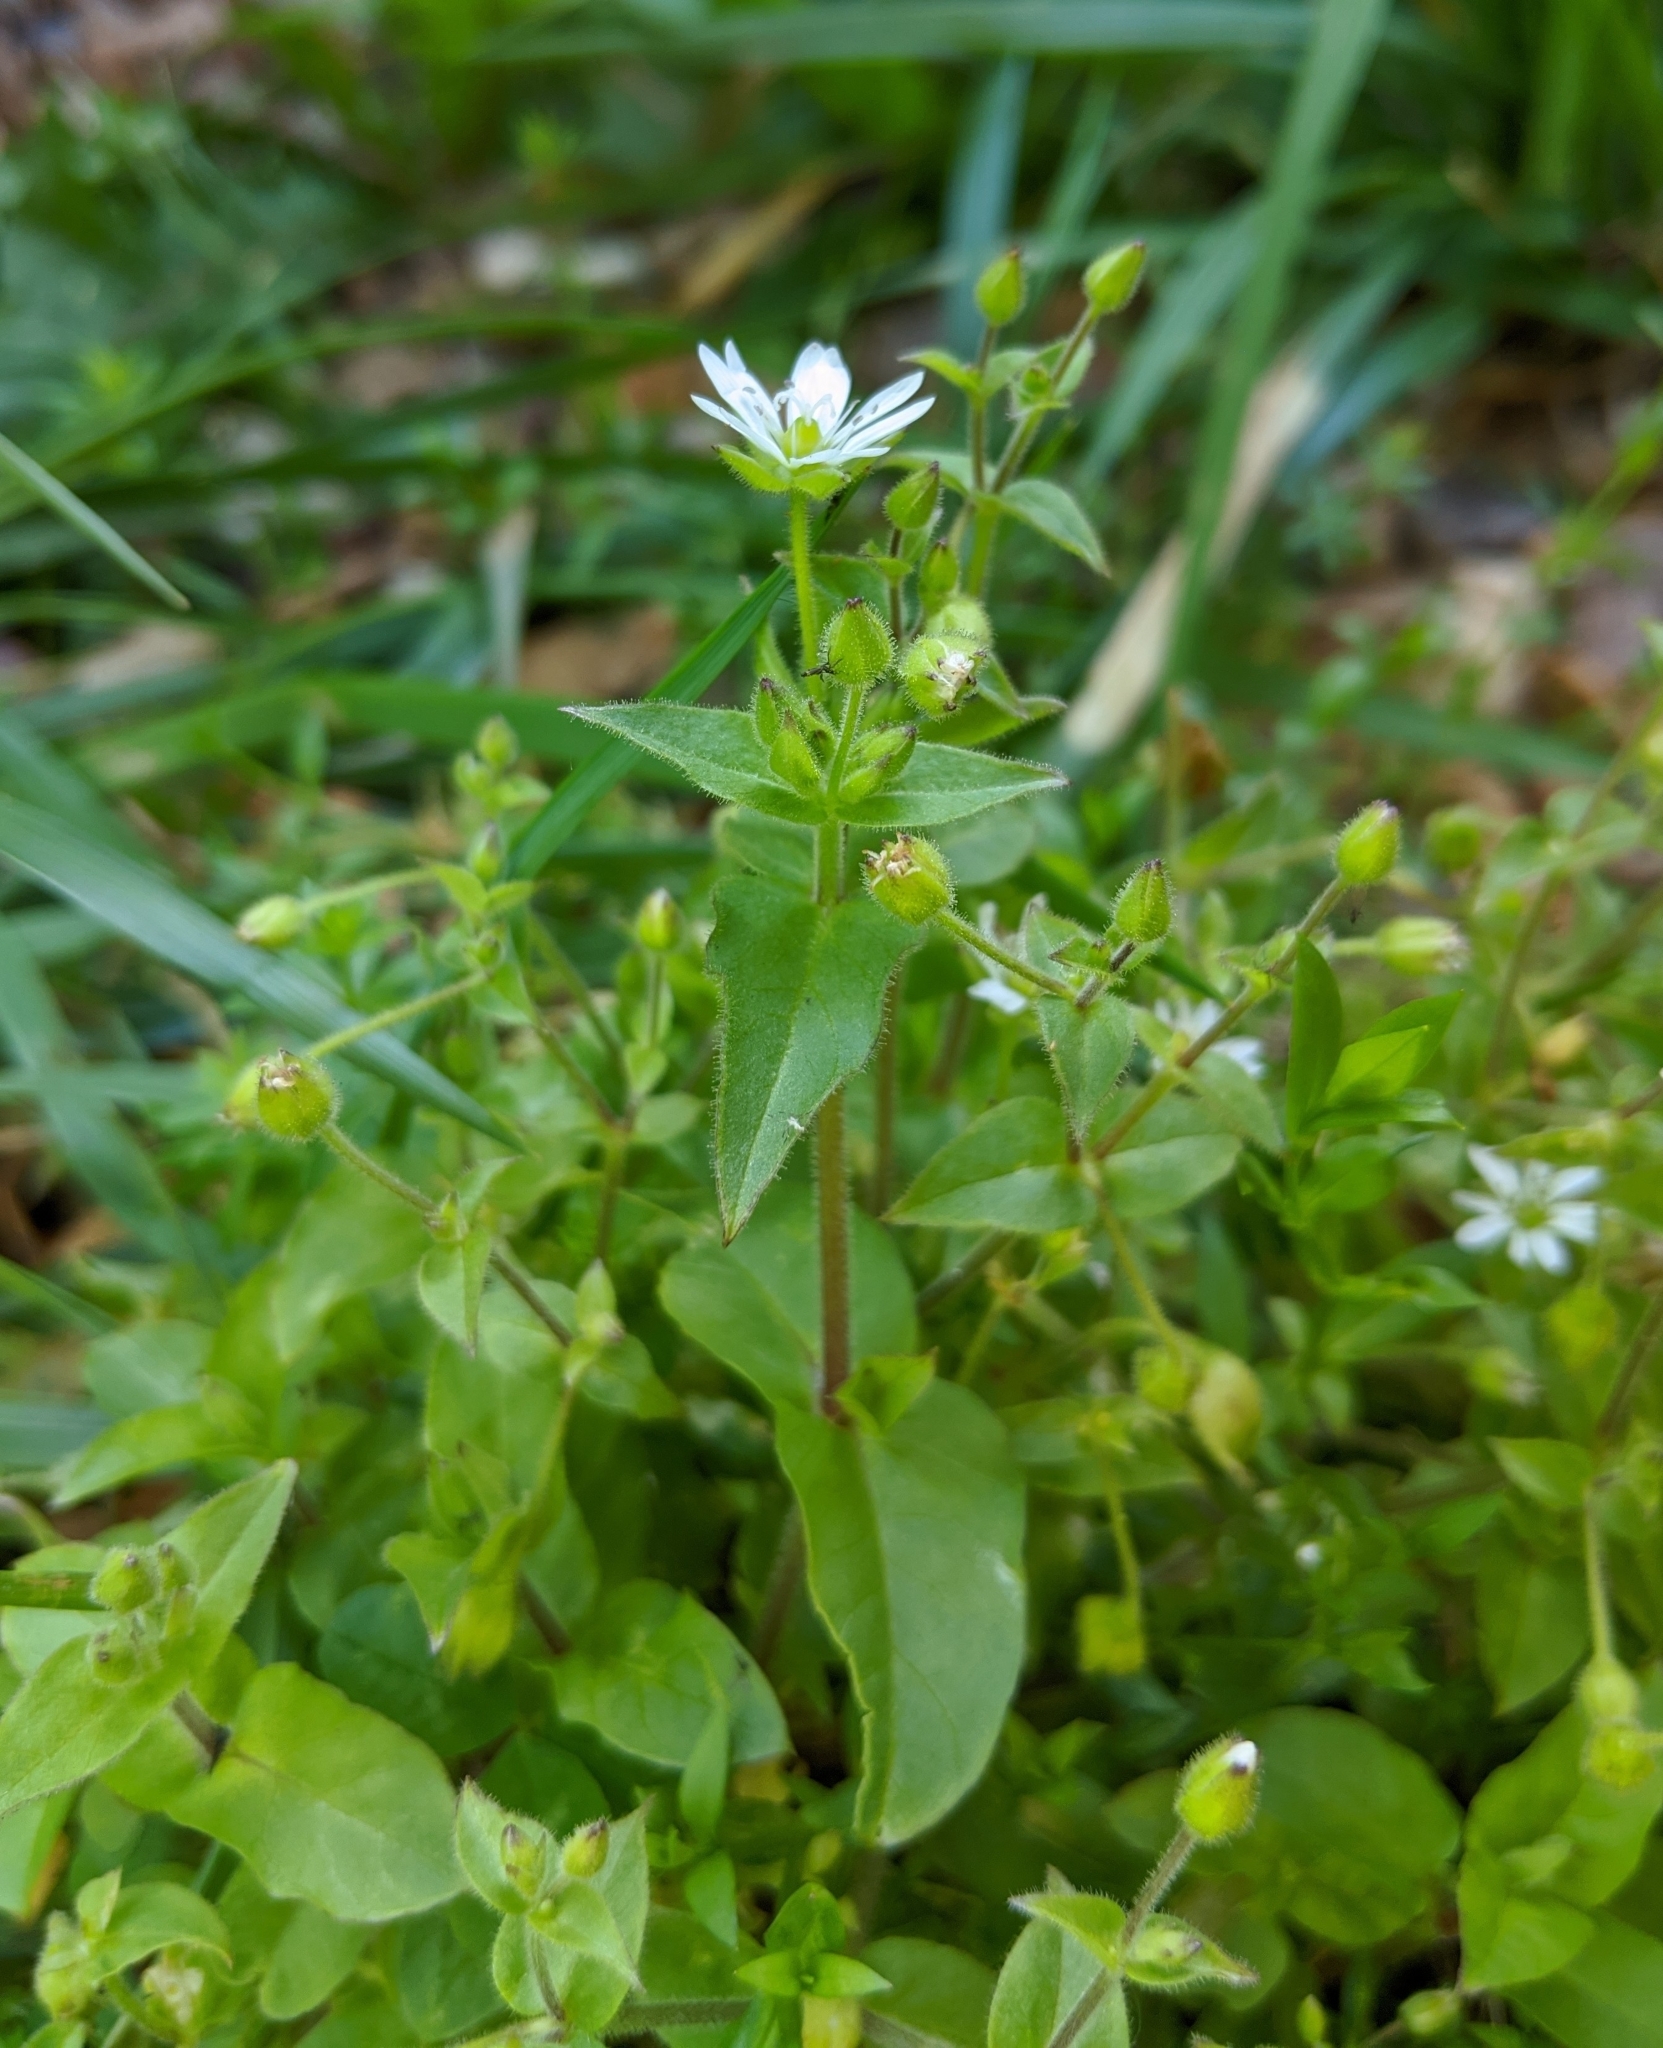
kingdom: Plantae
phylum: Tracheophyta
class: Magnoliopsida
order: Caryophyllales
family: Caryophyllaceae
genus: Stellaria
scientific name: Stellaria aquatica
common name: Water chickweed
